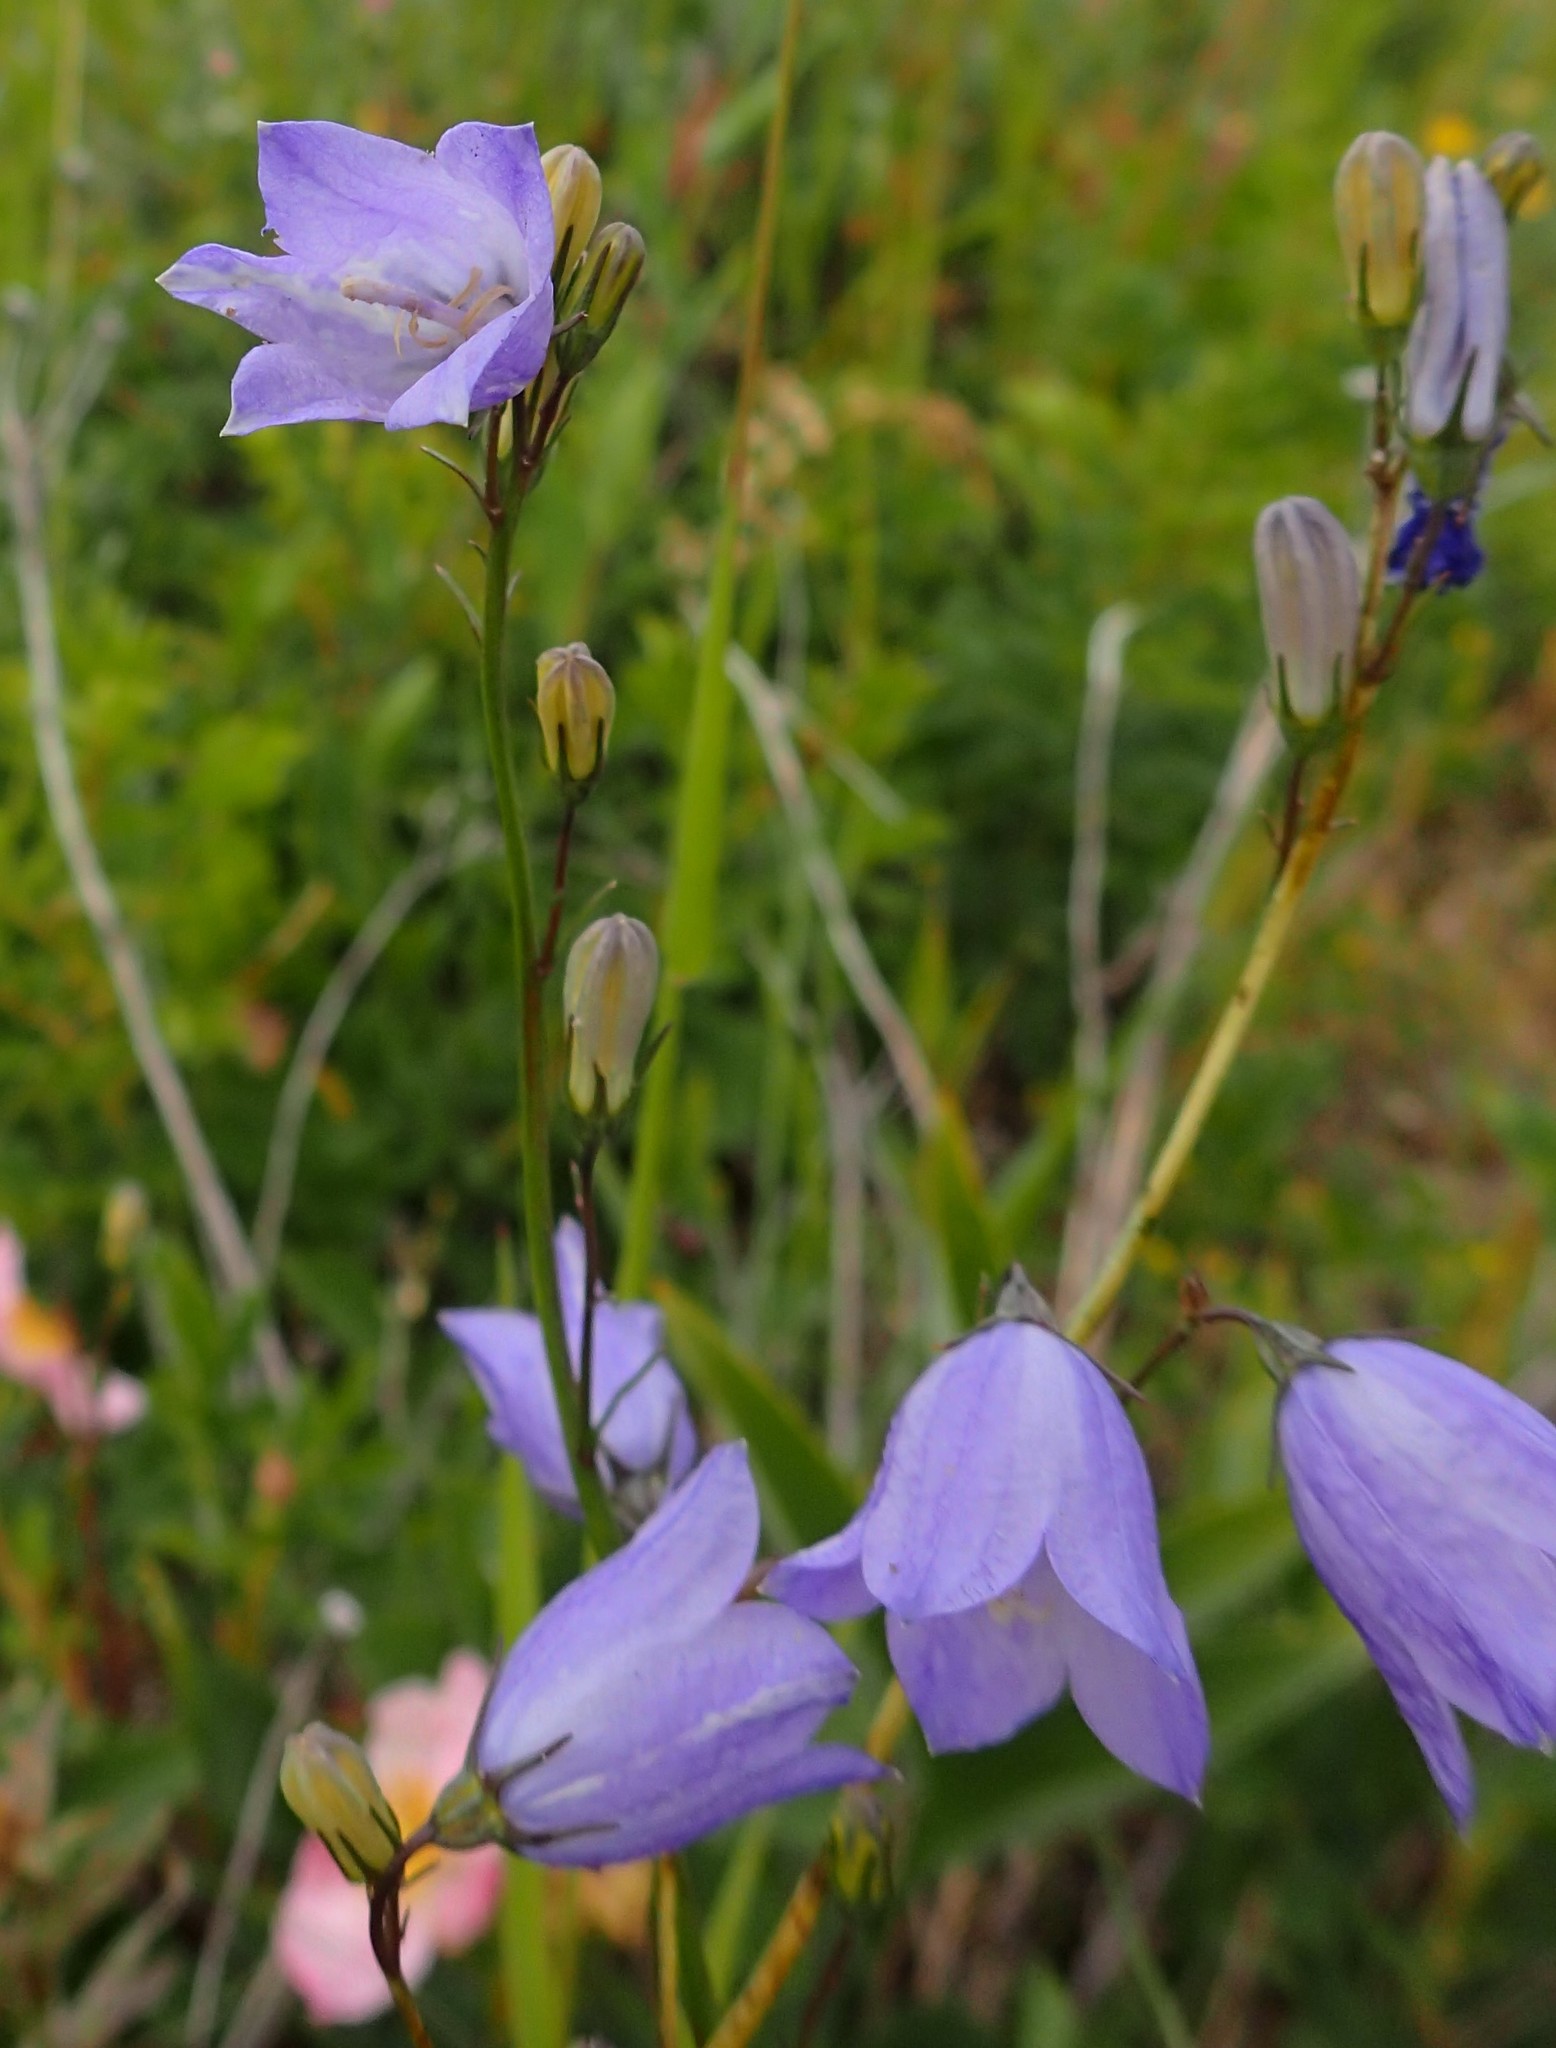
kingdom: Plantae
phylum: Tracheophyta
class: Magnoliopsida
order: Asterales
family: Campanulaceae
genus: Campanula
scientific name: Campanula alaskana
